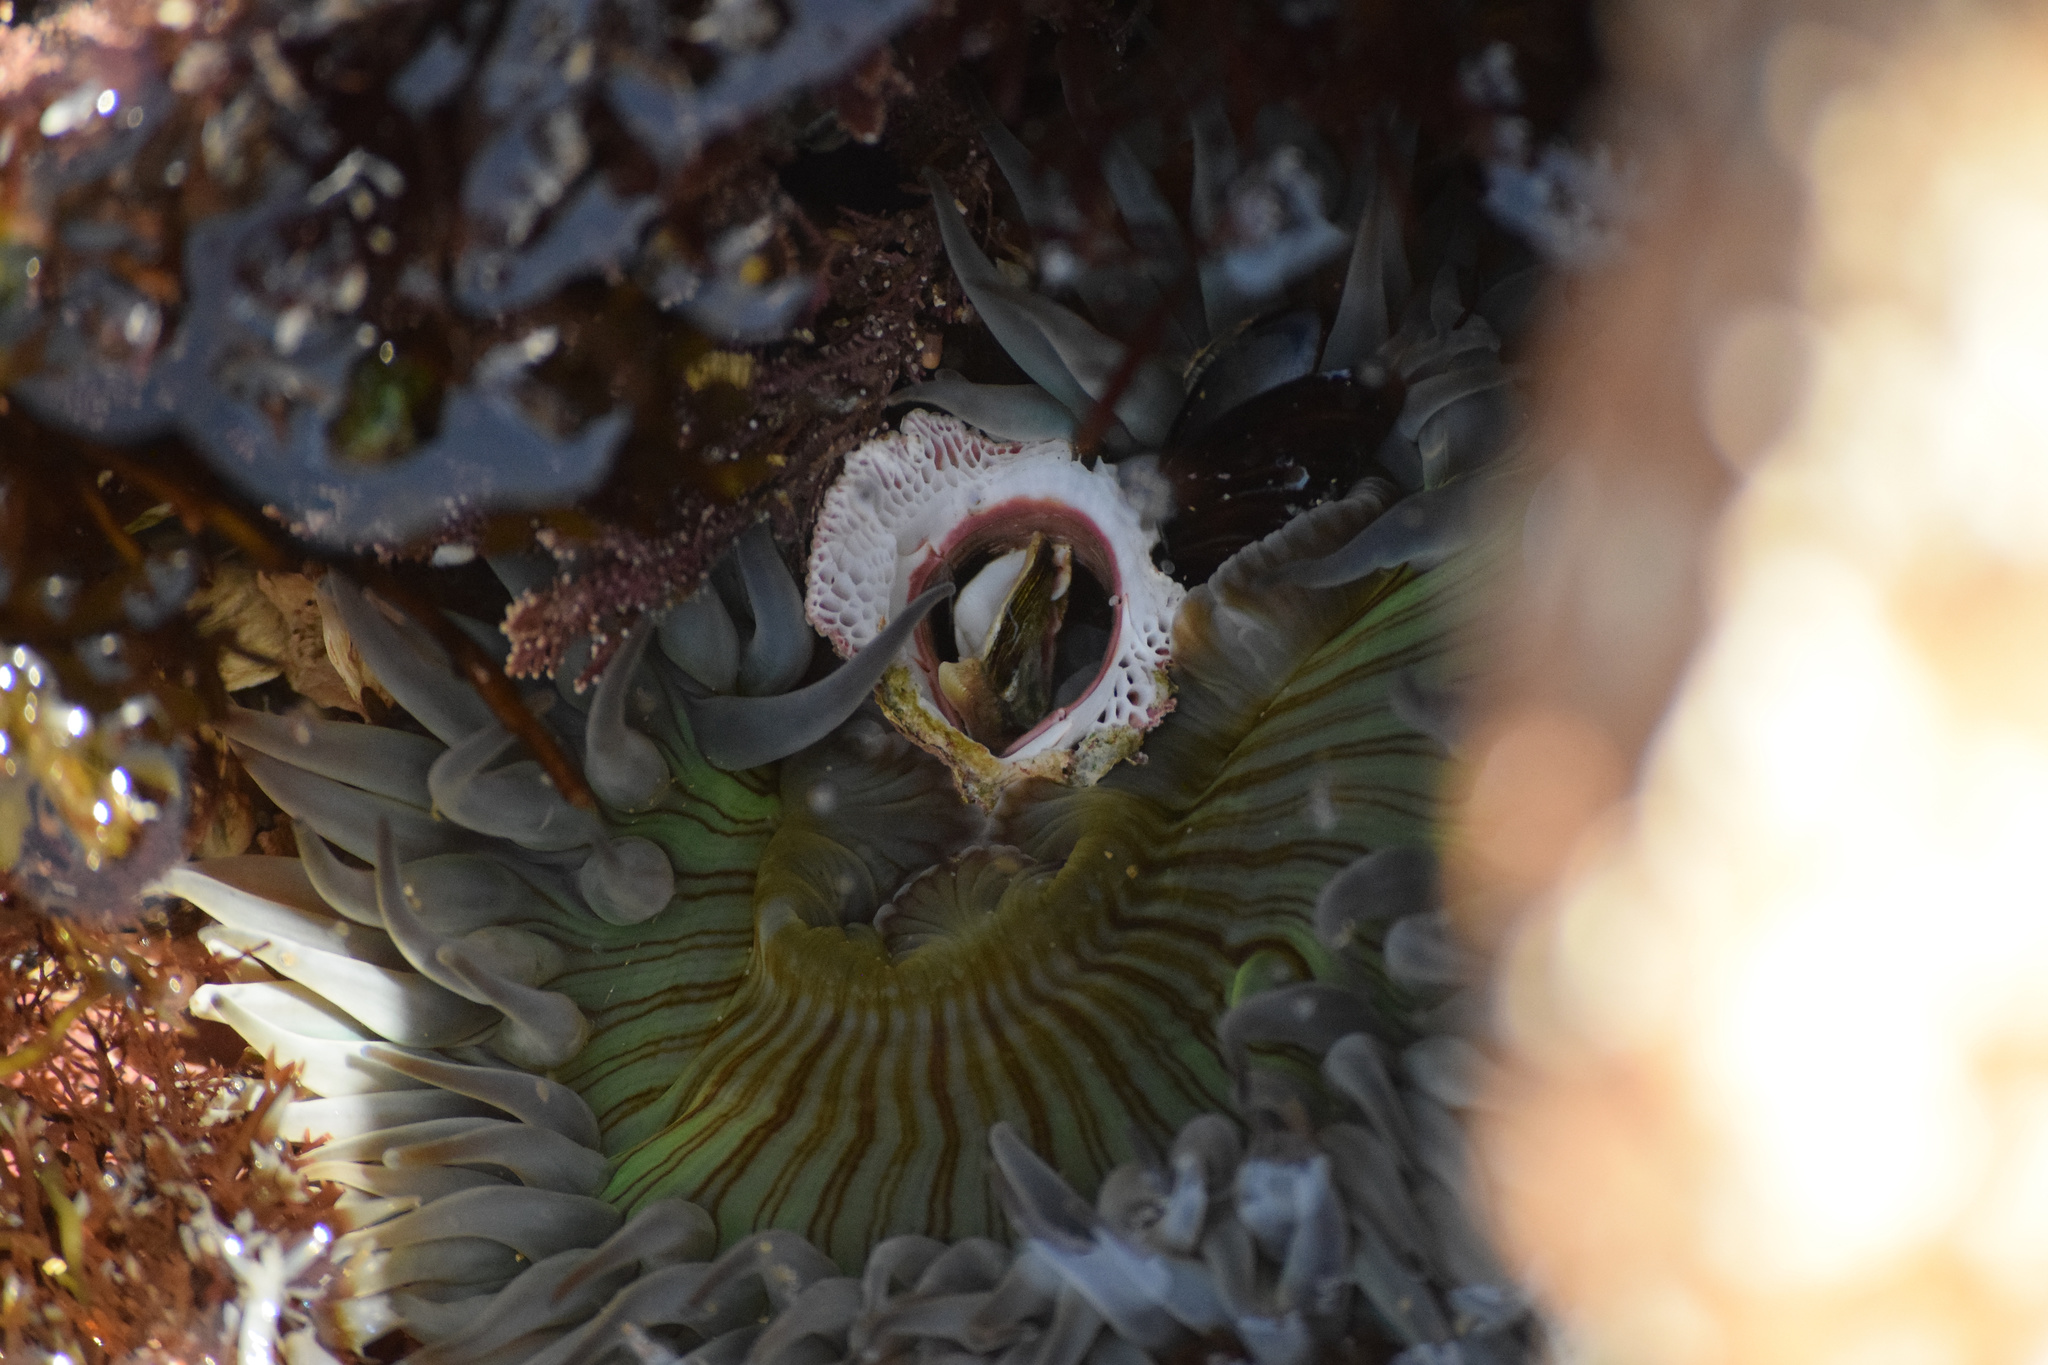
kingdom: Animalia
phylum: Cnidaria
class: Anthozoa
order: Actiniaria
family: Actiniidae
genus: Anthopleura
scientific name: Anthopleura sola
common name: Sun anemone
